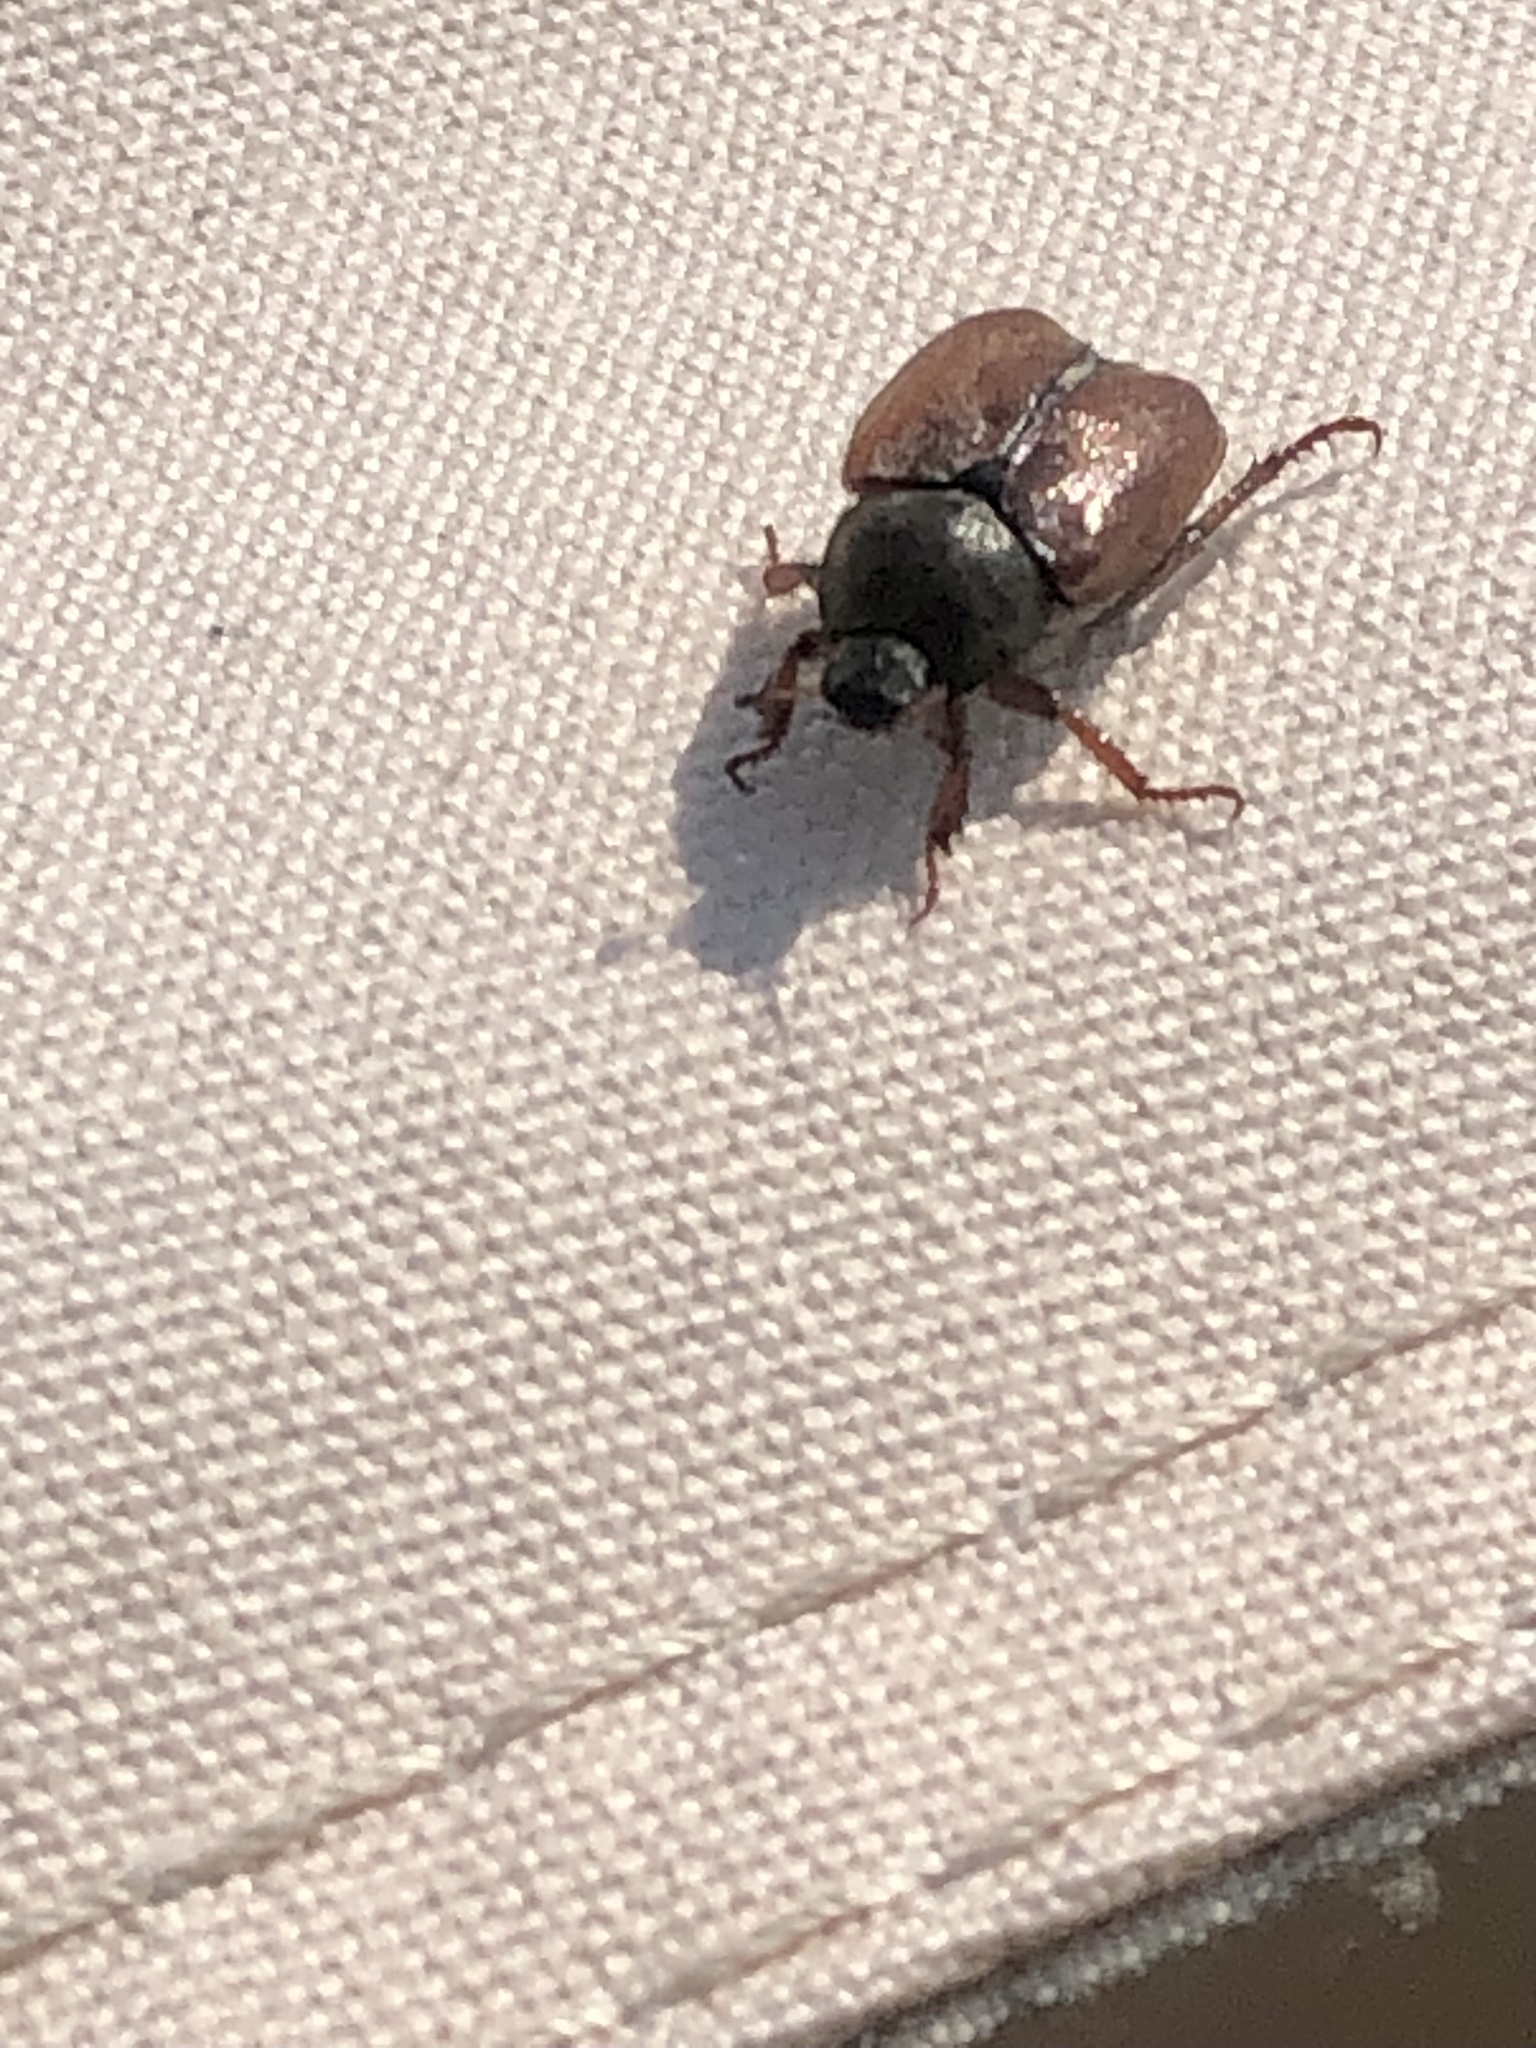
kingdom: Animalia
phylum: Arthropoda
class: Insecta
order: Coleoptera
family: Scarabaeidae
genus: Hoplia
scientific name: Hoplia philanthus
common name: Welsh chafer
